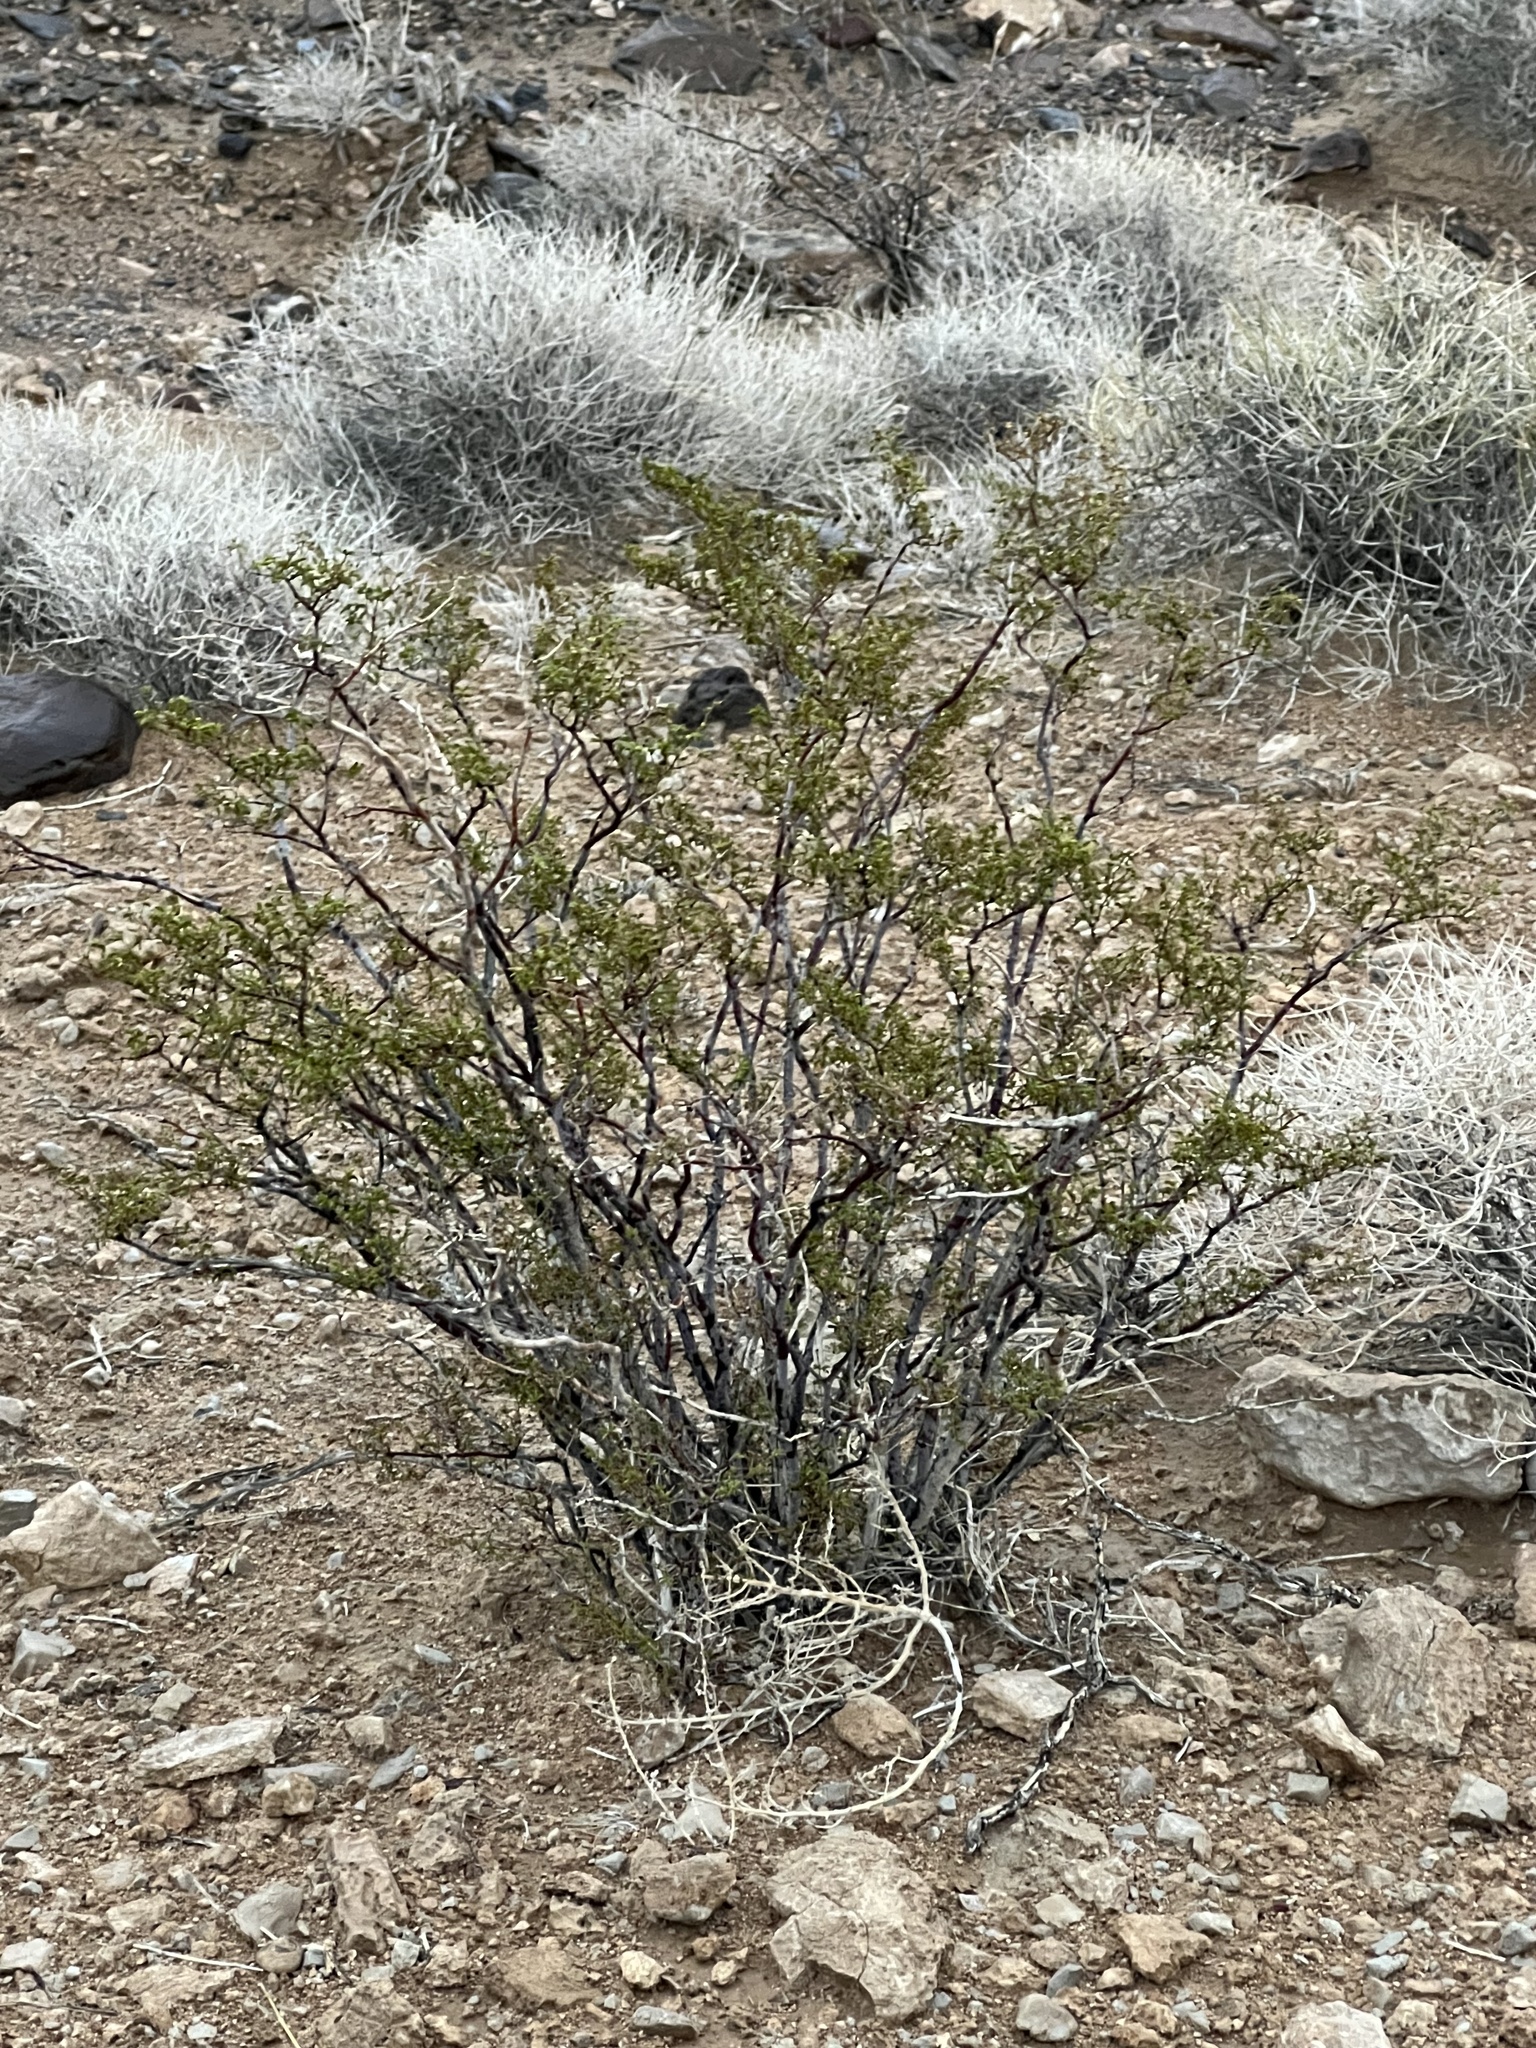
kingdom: Plantae
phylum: Tracheophyta
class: Magnoliopsida
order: Zygophyllales
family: Zygophyllaceae
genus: Larrea
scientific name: Larrea tridentata
